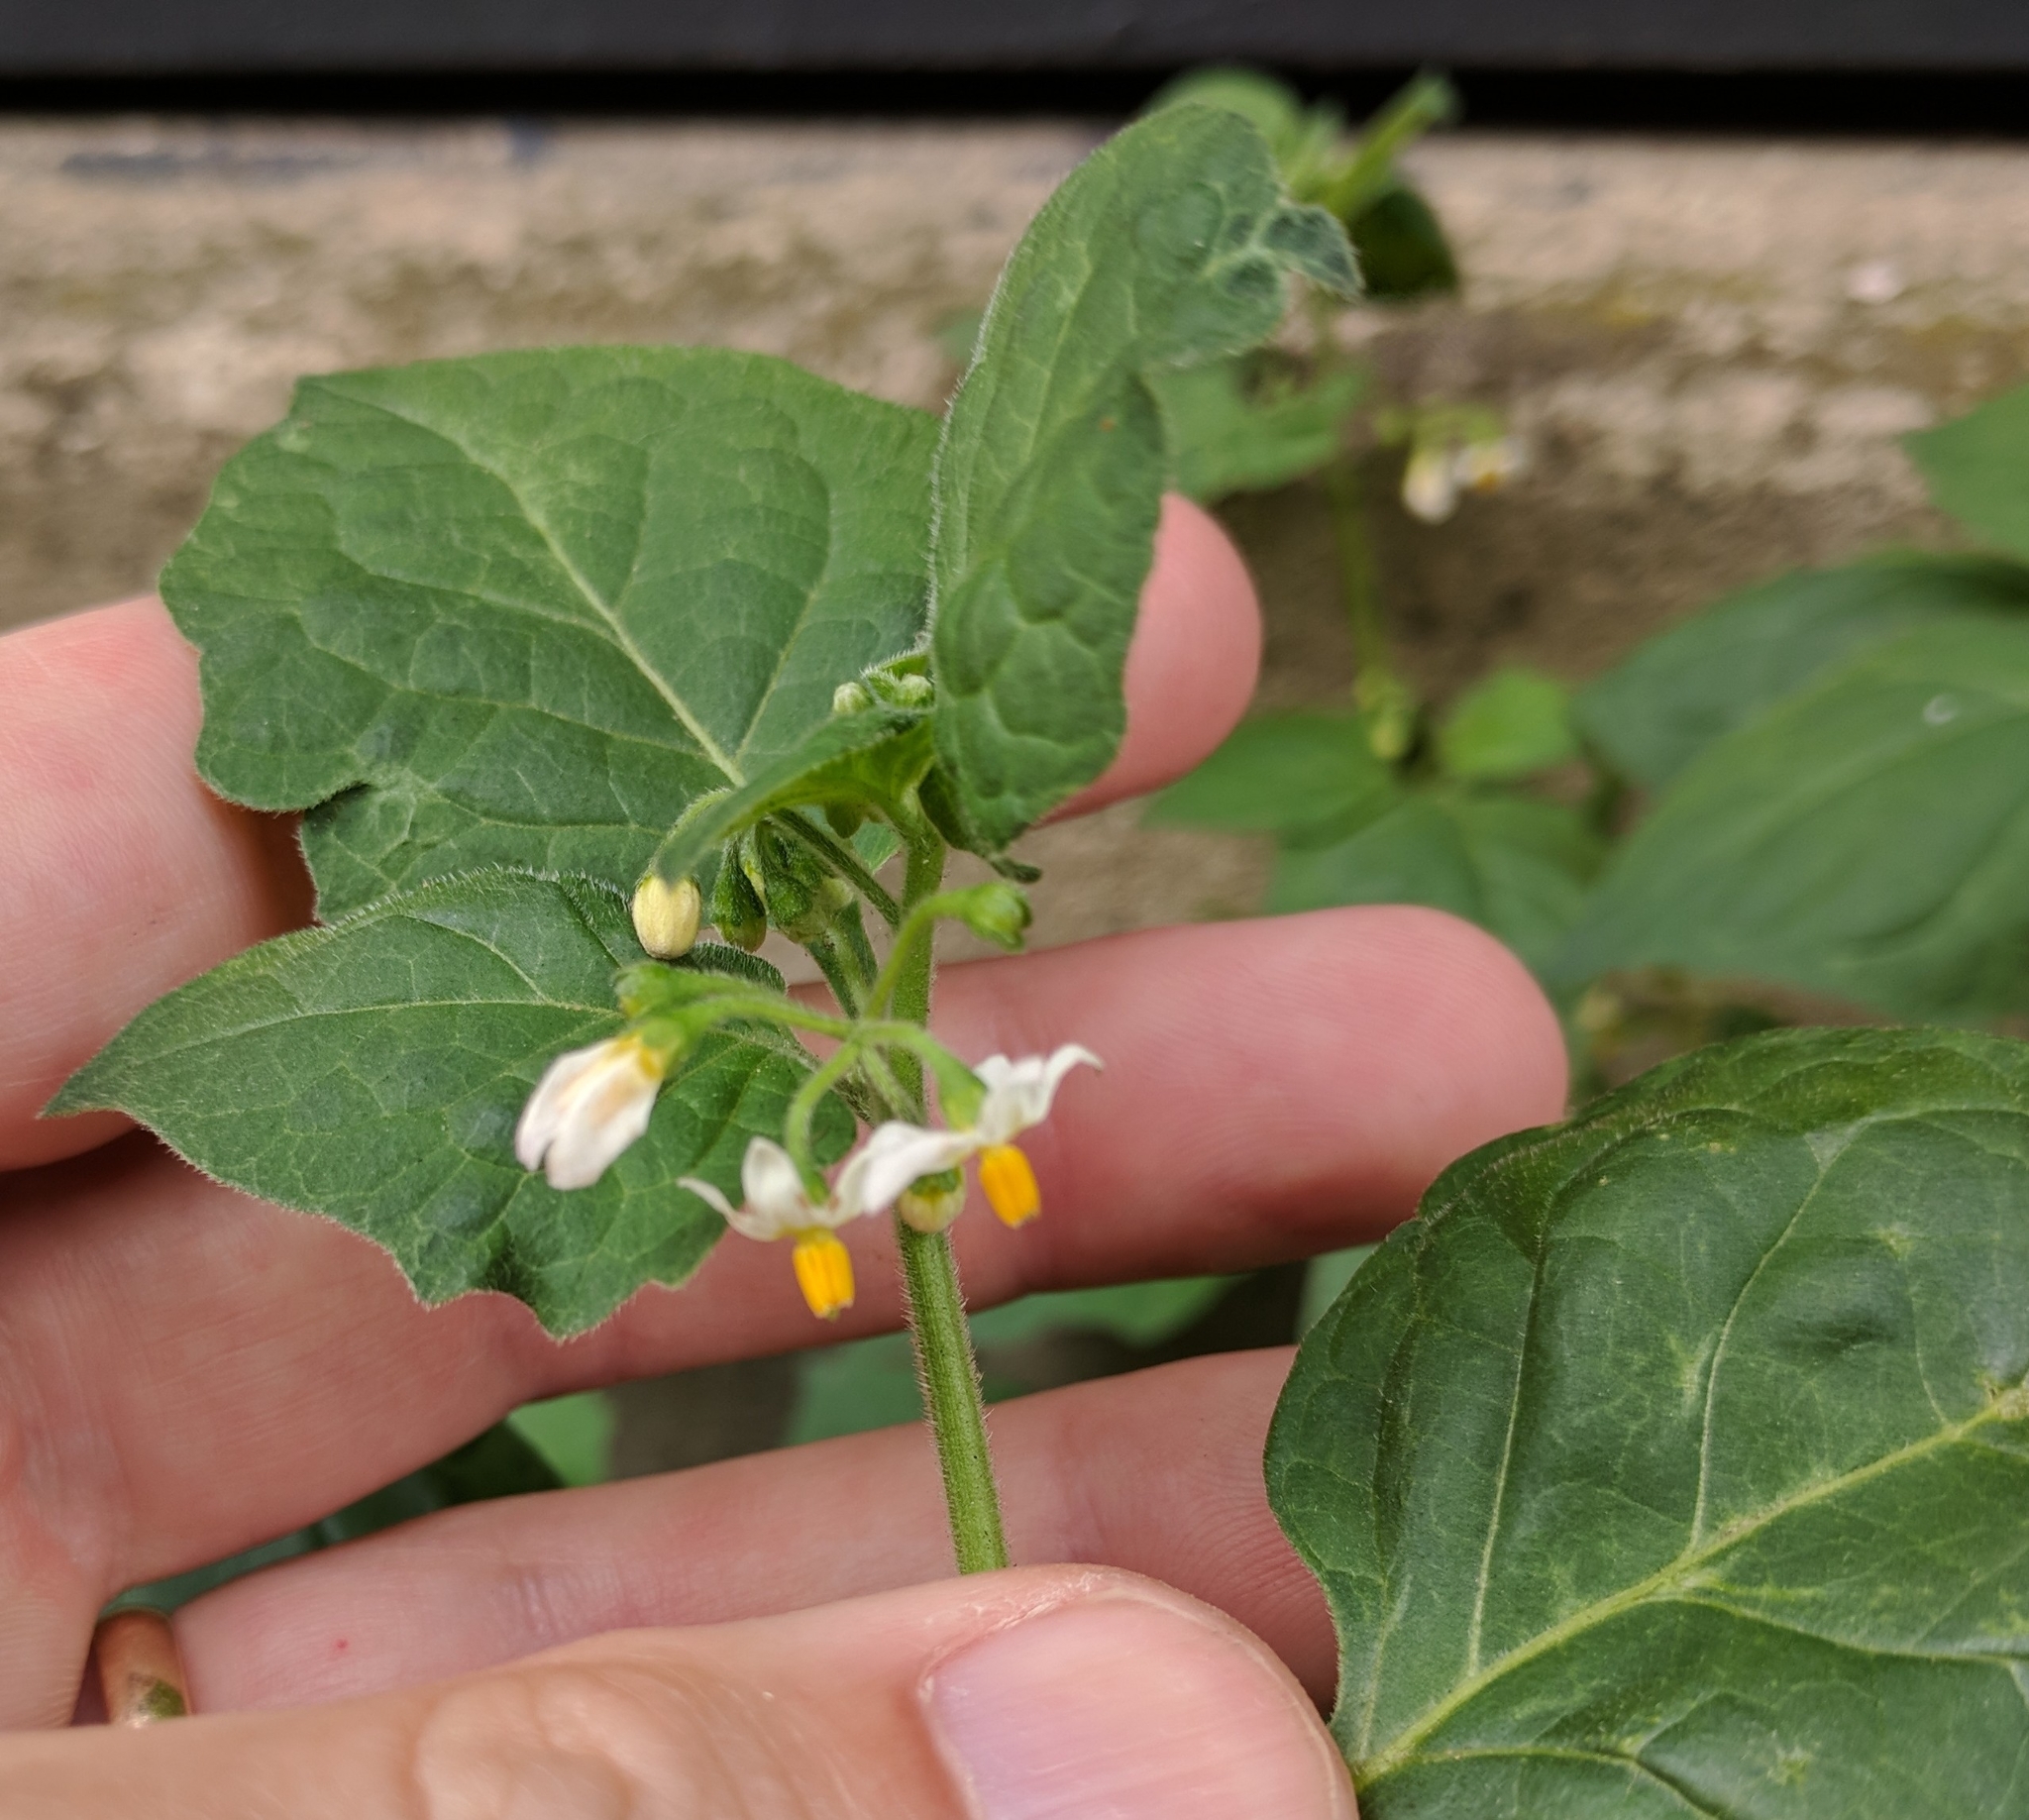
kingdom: Plantae
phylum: Tracheophyta
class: Magnoliopsida
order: Solanales
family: Solanaceae
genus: Solanum
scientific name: Solanum nigrum
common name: Black nightshade
